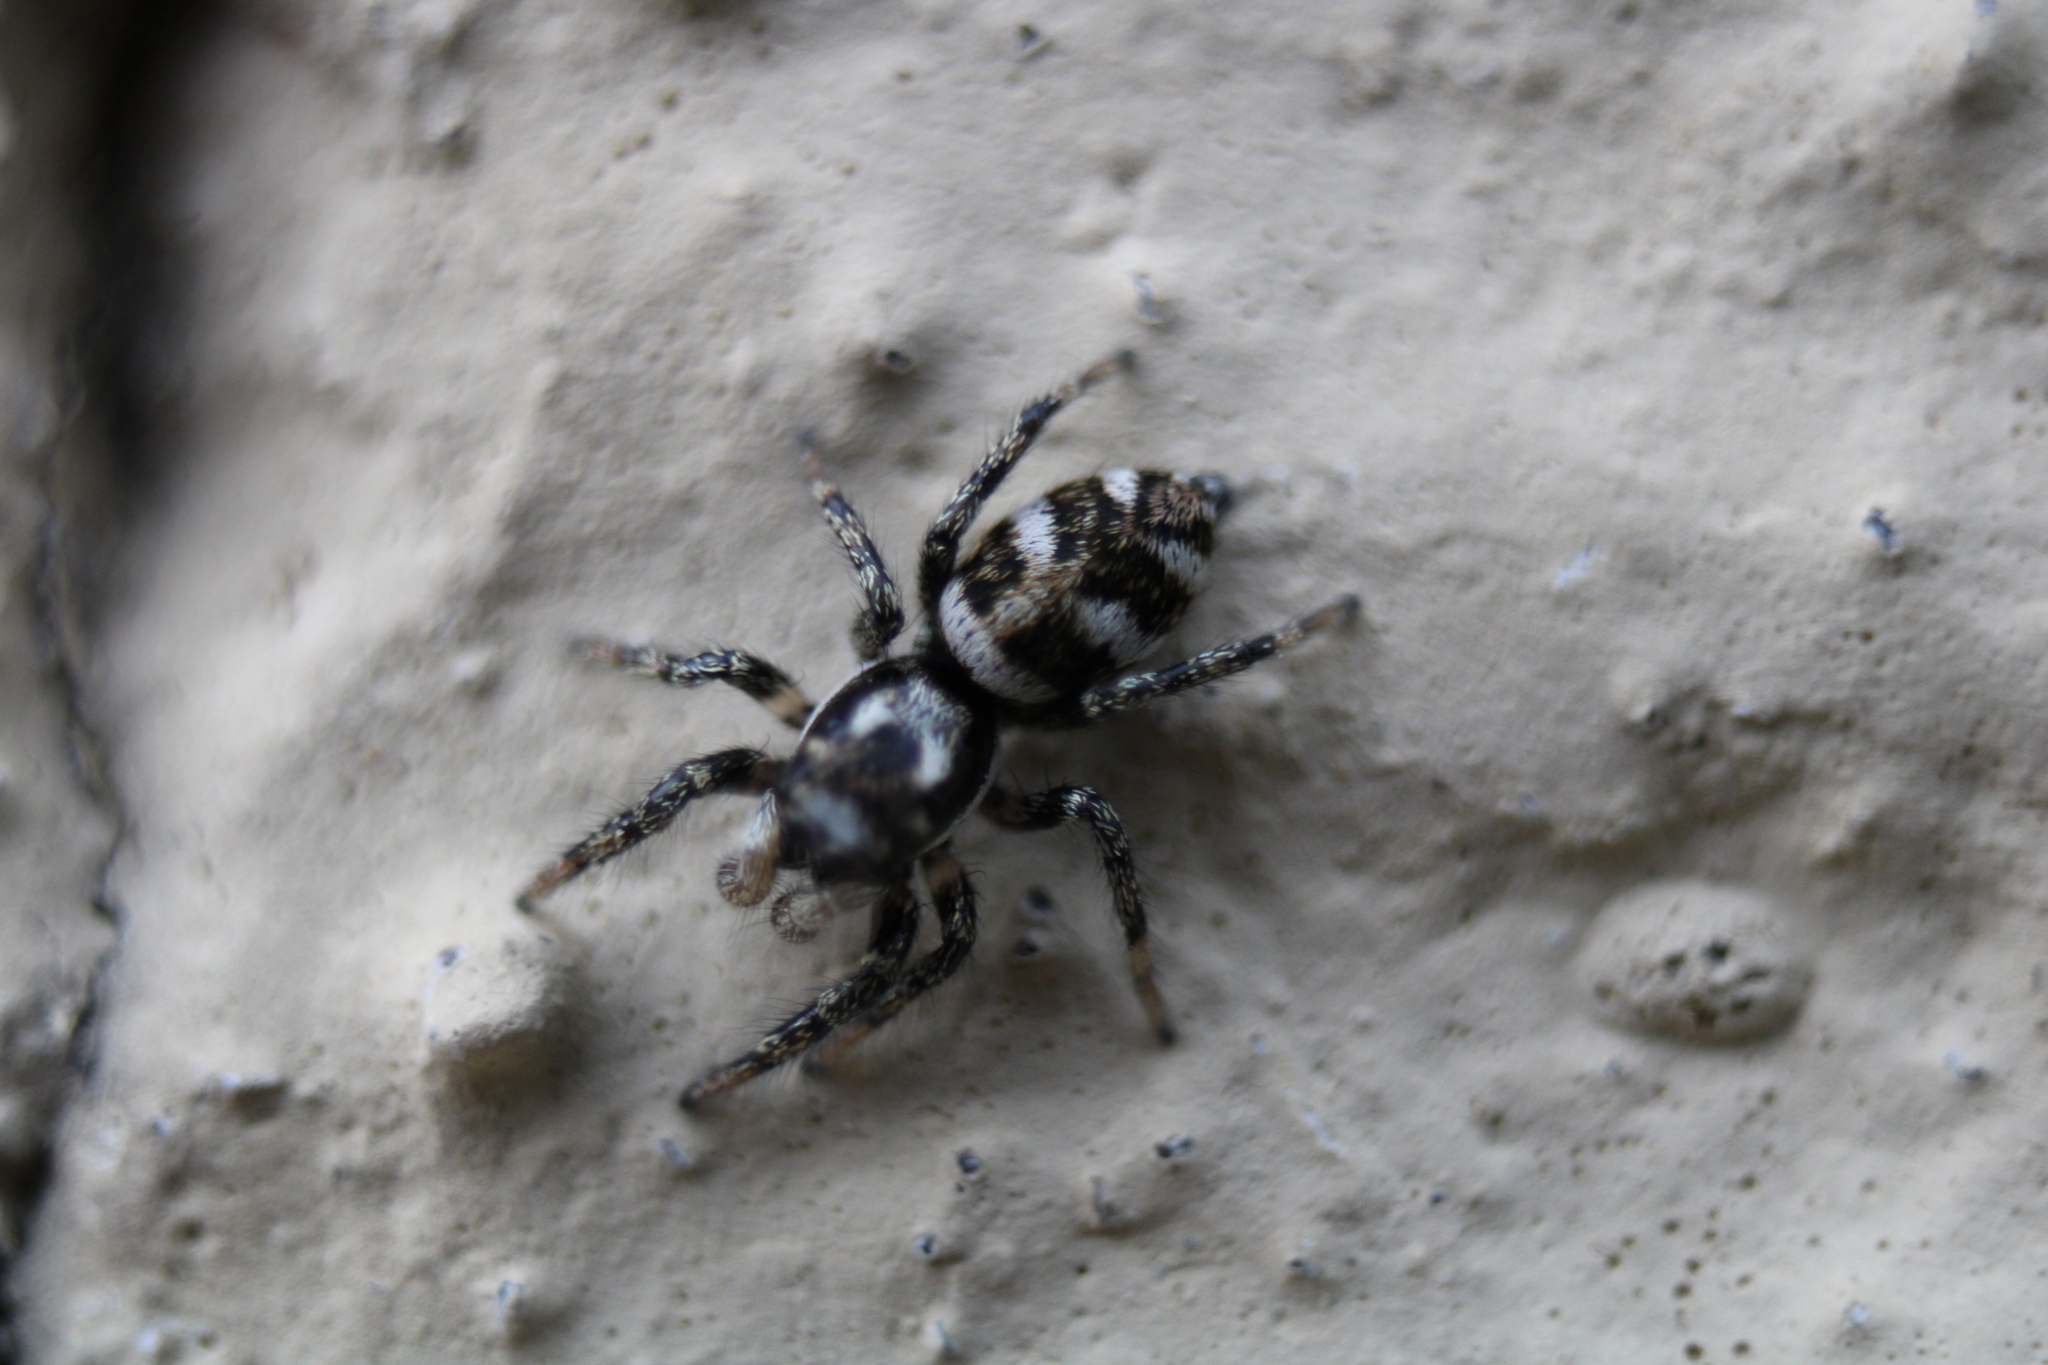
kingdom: Animalia
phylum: Arthropoda
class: Arachnida
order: Araneae
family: Salticidae
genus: Salticus
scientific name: Salticus scenicus
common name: Zebra jumper
